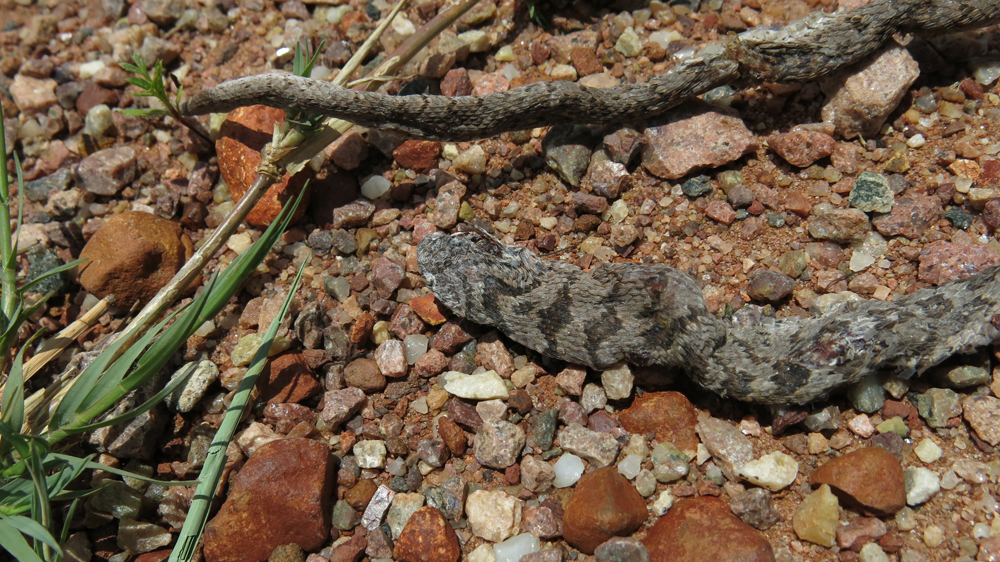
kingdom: Animalia
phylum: Chordata
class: Squamata
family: Colubridae
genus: Dasypeltis
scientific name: Dasypeltis scabra
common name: Common egg eater
